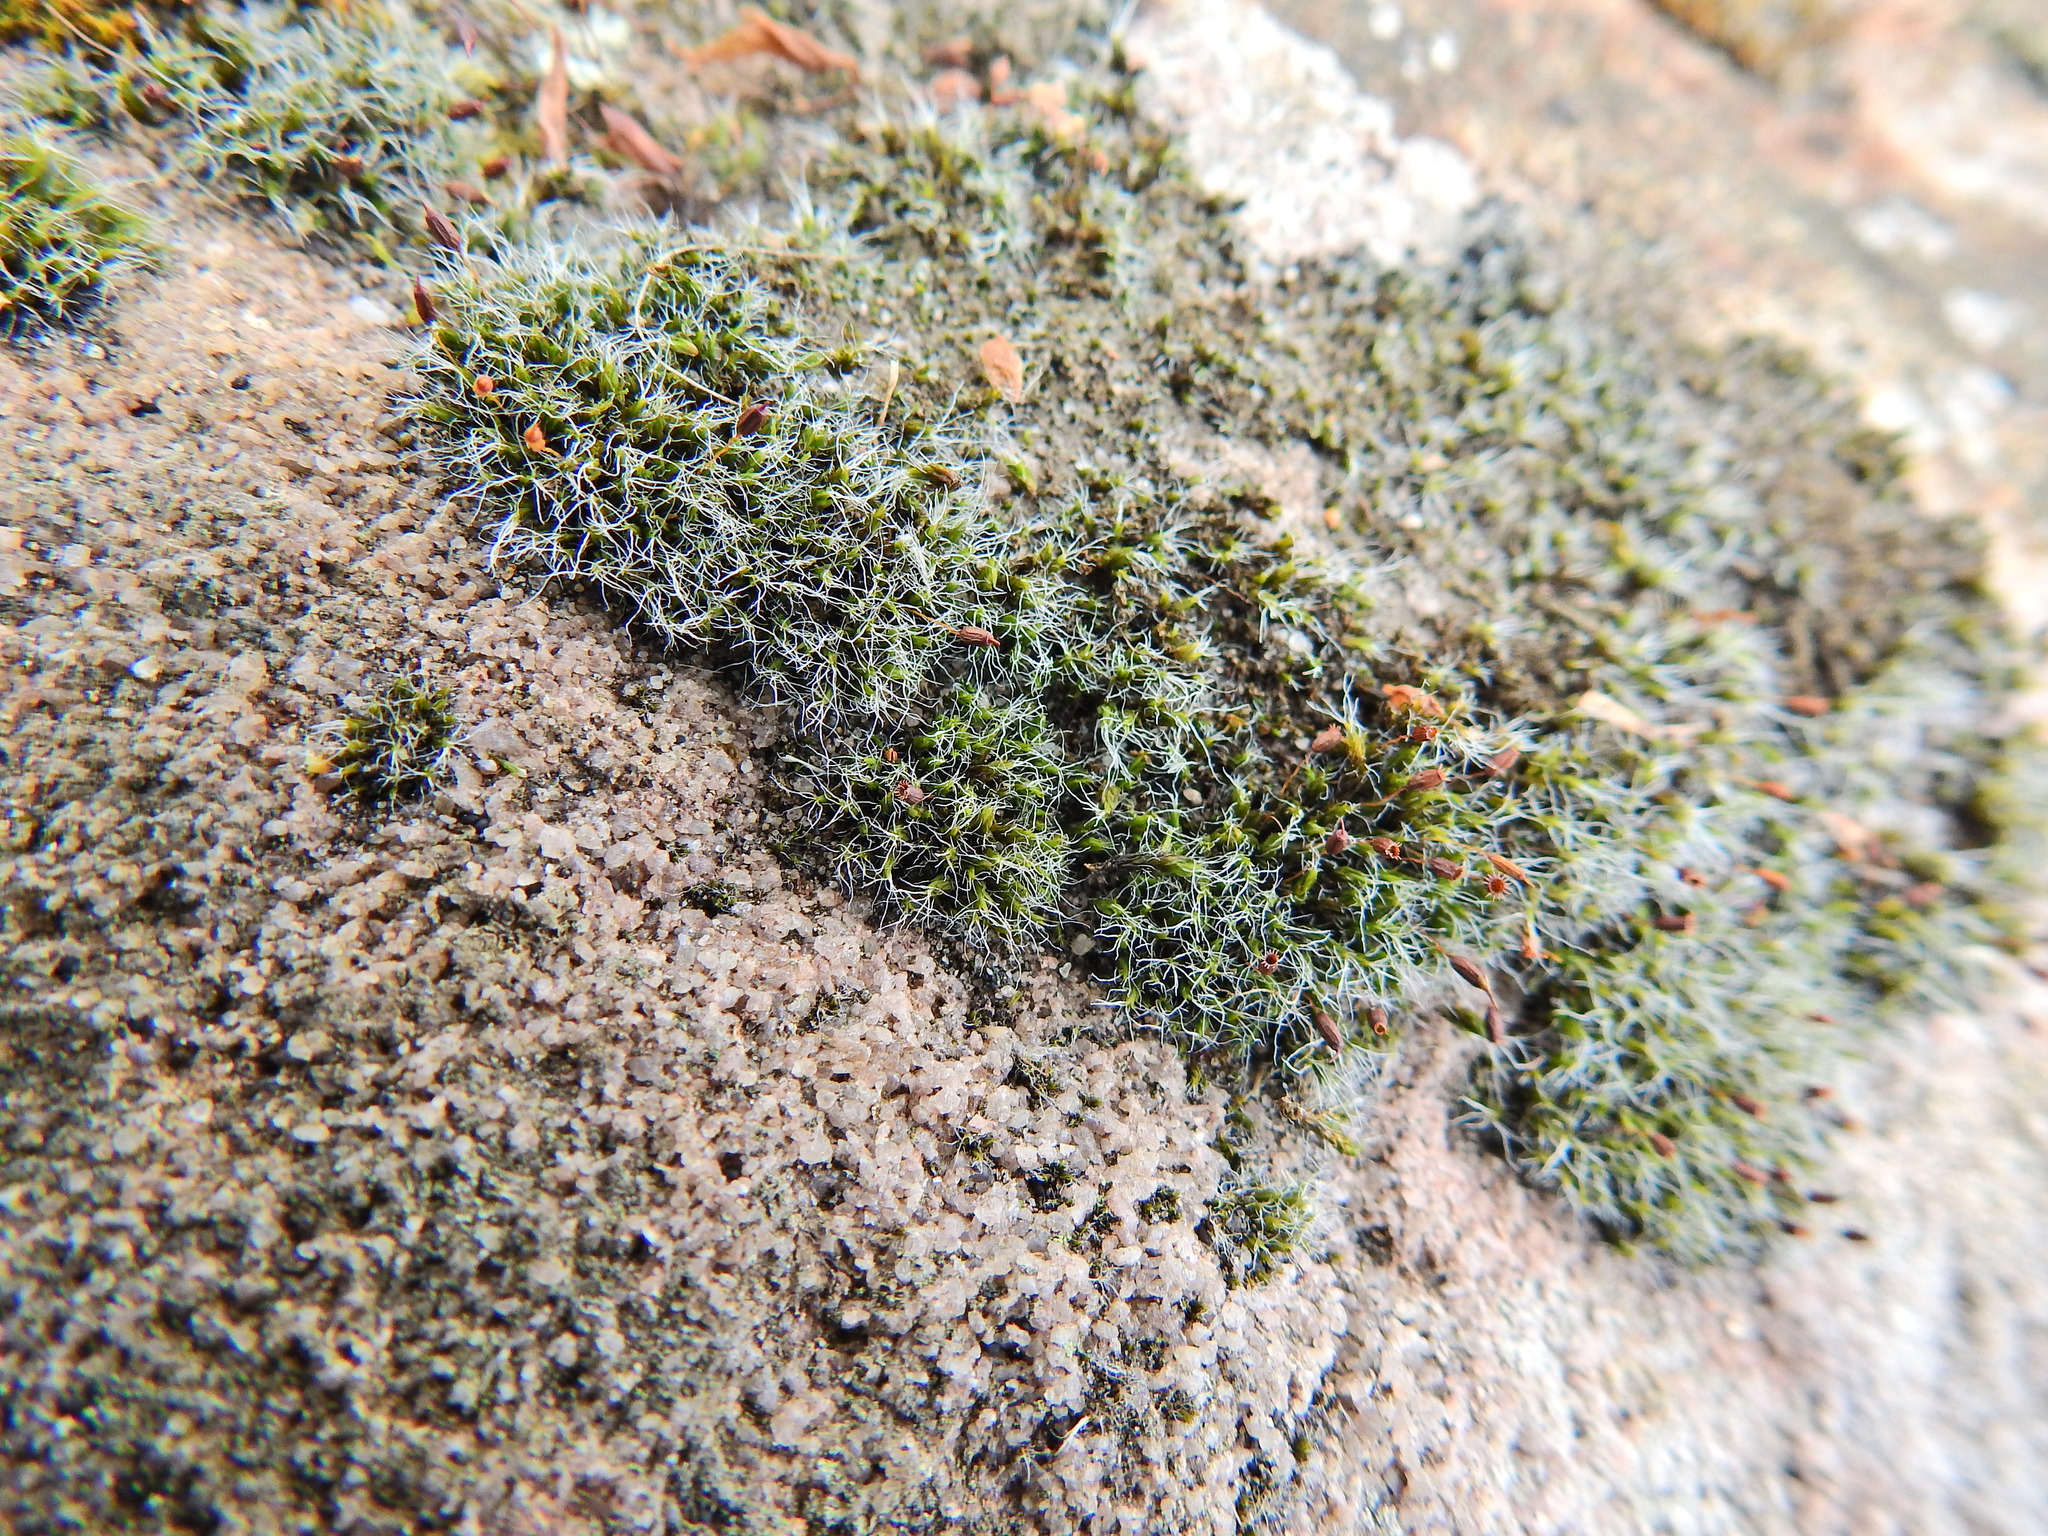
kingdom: Plantae
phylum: Bryophyta
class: Bryopsida
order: Grimmiales
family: Grimmiaceae
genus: Grimmia
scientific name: Grimmia pulvinata
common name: Grey-cushioned grimmia
